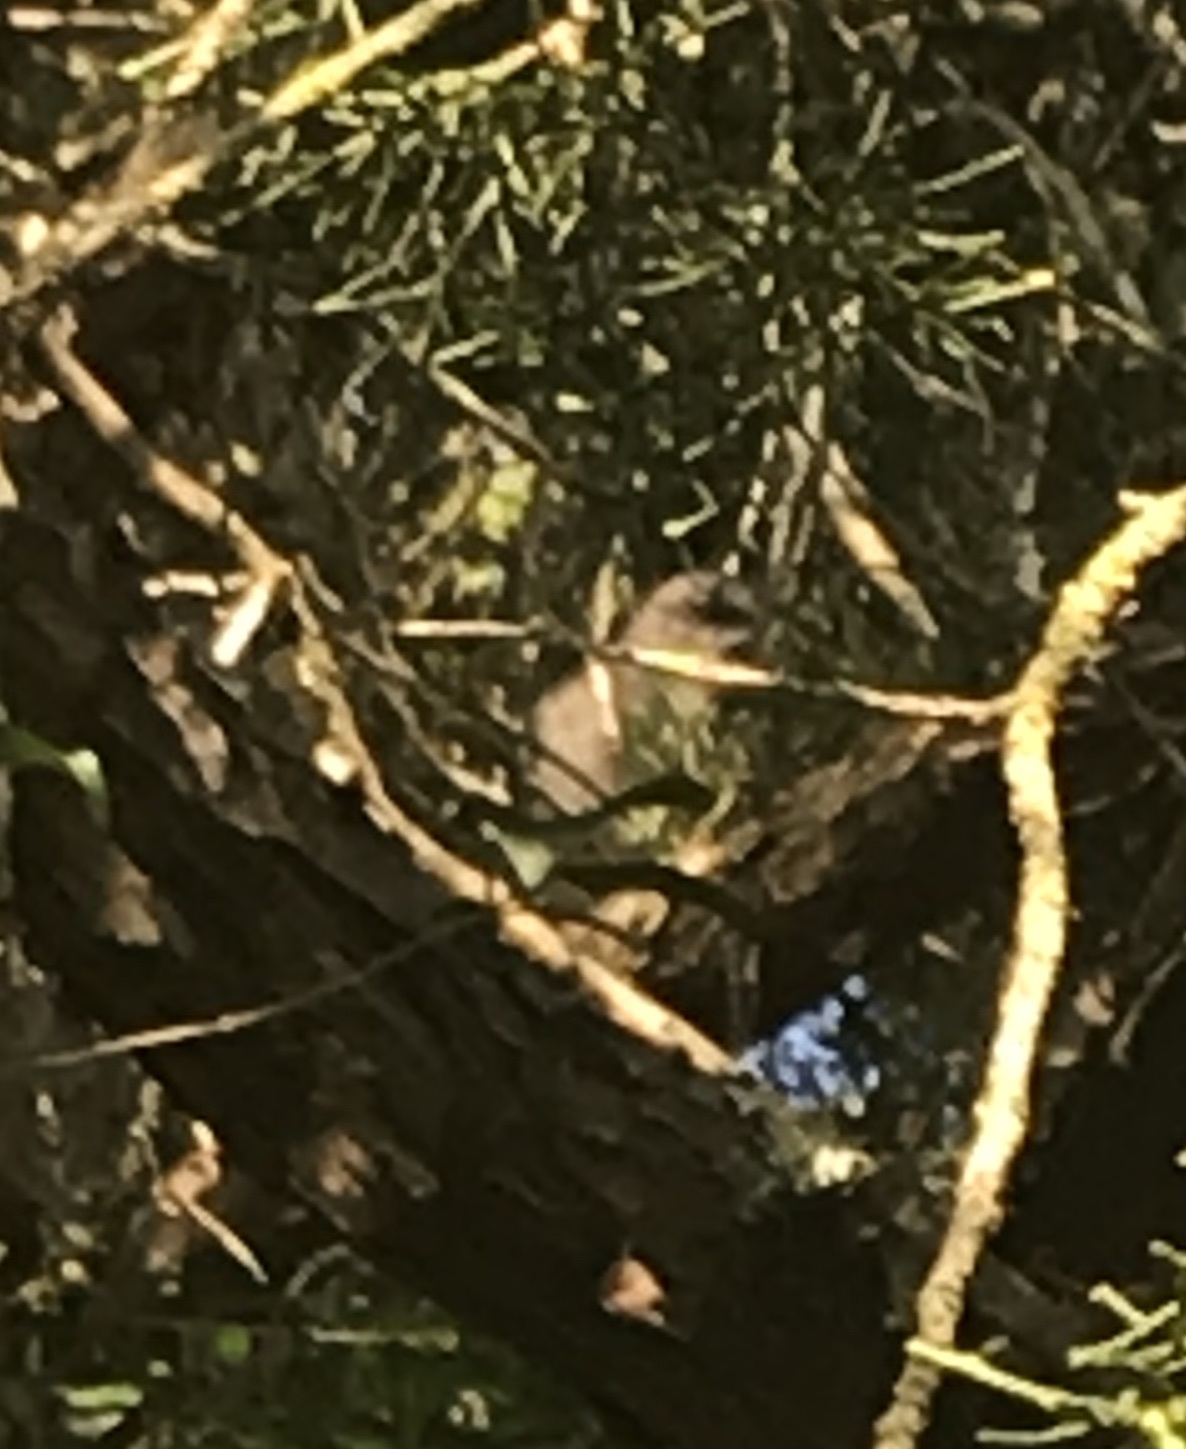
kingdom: Animalia
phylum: Chordata
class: Aves
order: Passeriformes
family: Mimidae
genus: Mimus
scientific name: Mimus polyglottos
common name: Northern mockingbird
